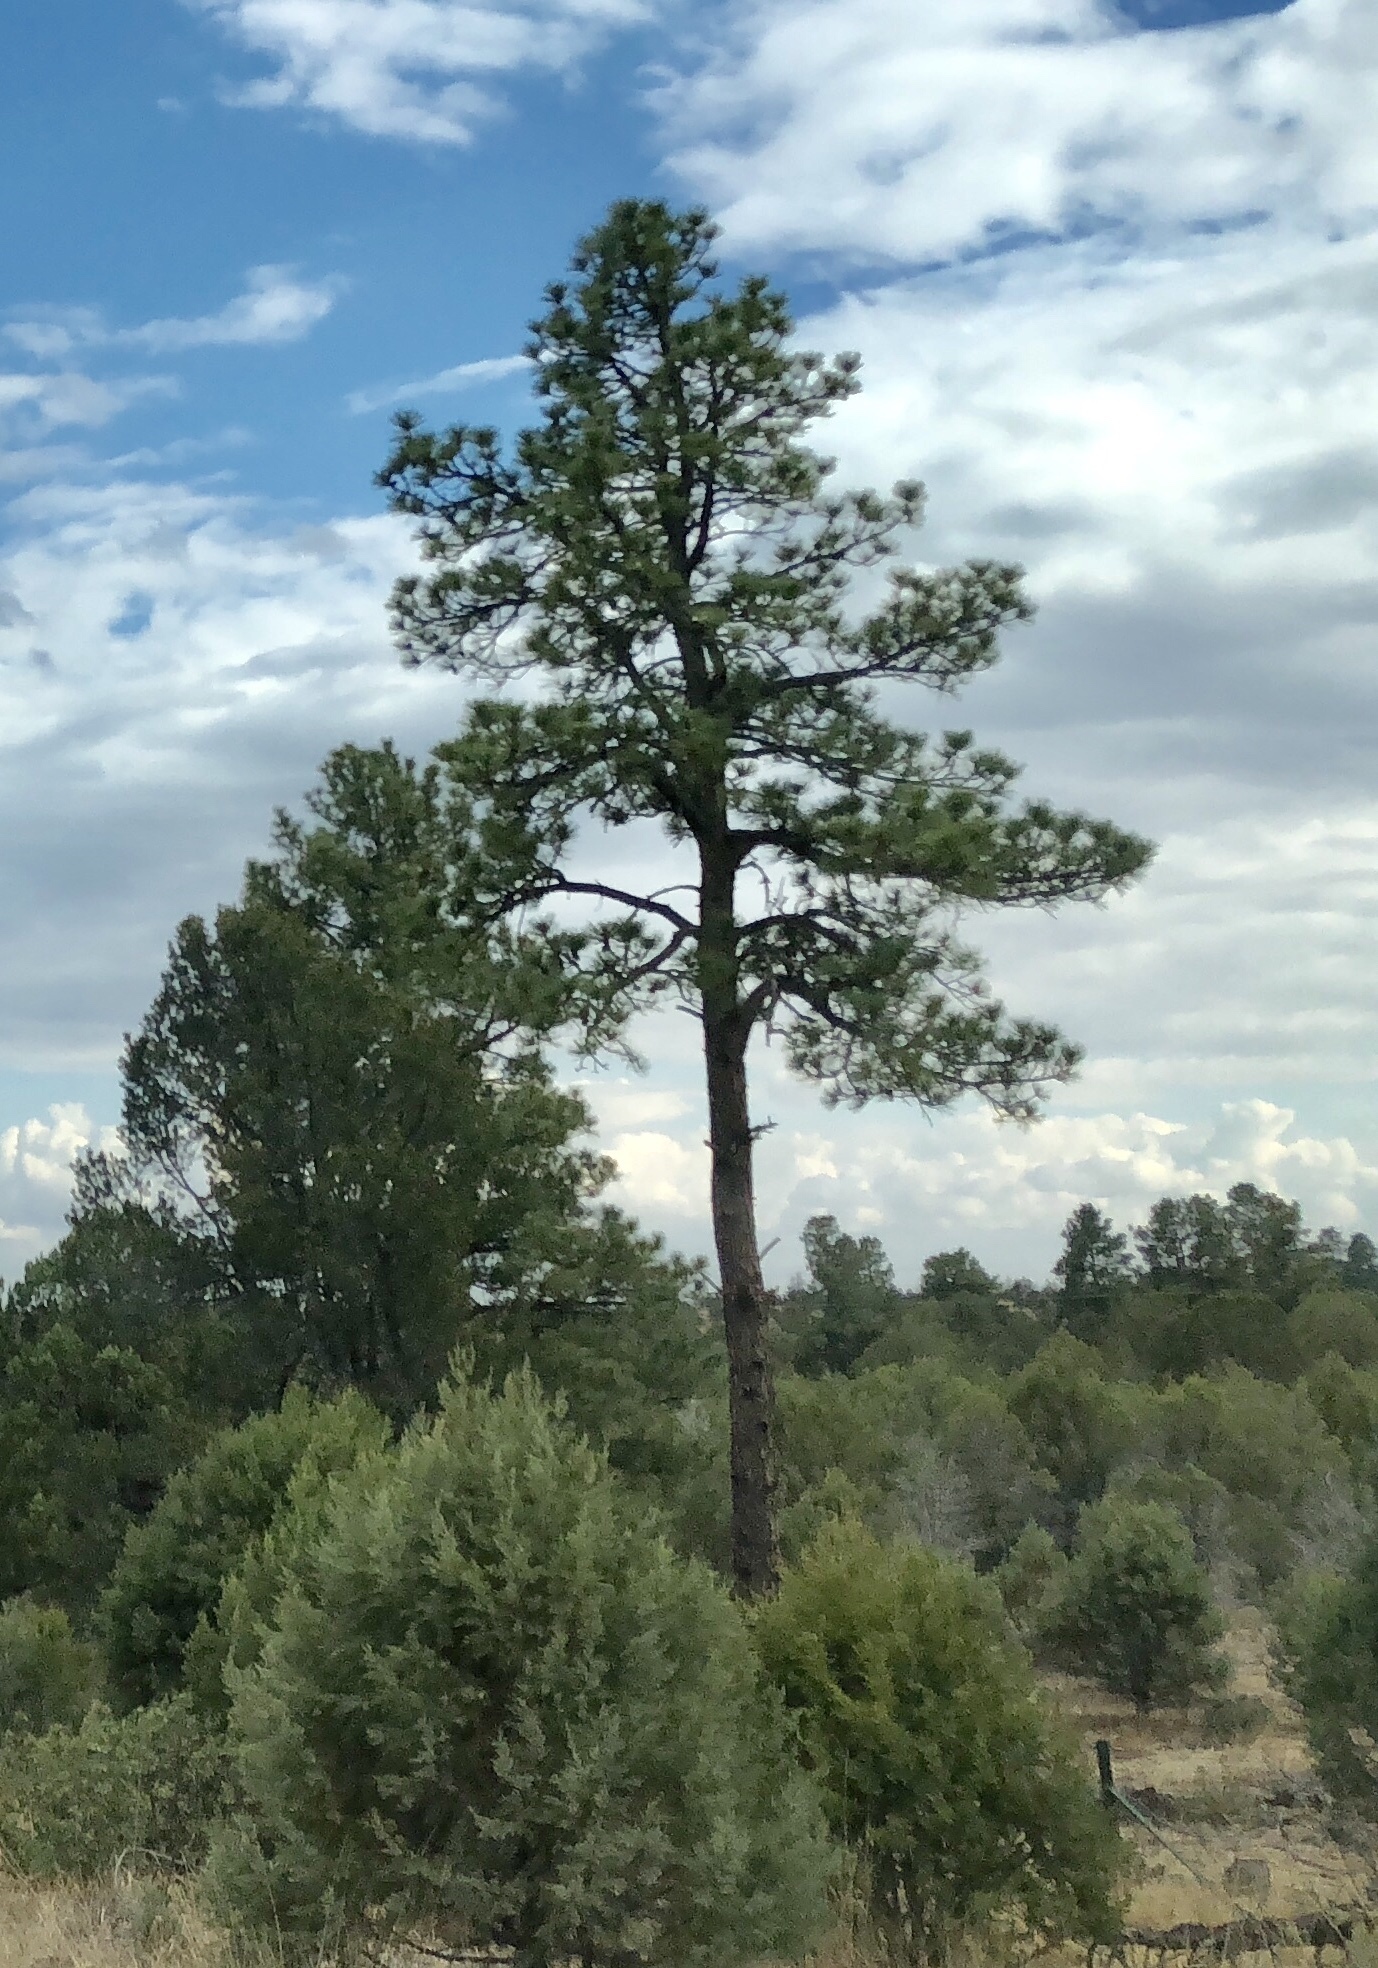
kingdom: Plantae
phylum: Tracheophyta
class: Pinopsida
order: Pinales
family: Pinaceae
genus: Pinus
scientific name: Pinus ponderosa
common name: Western yellow-pine
